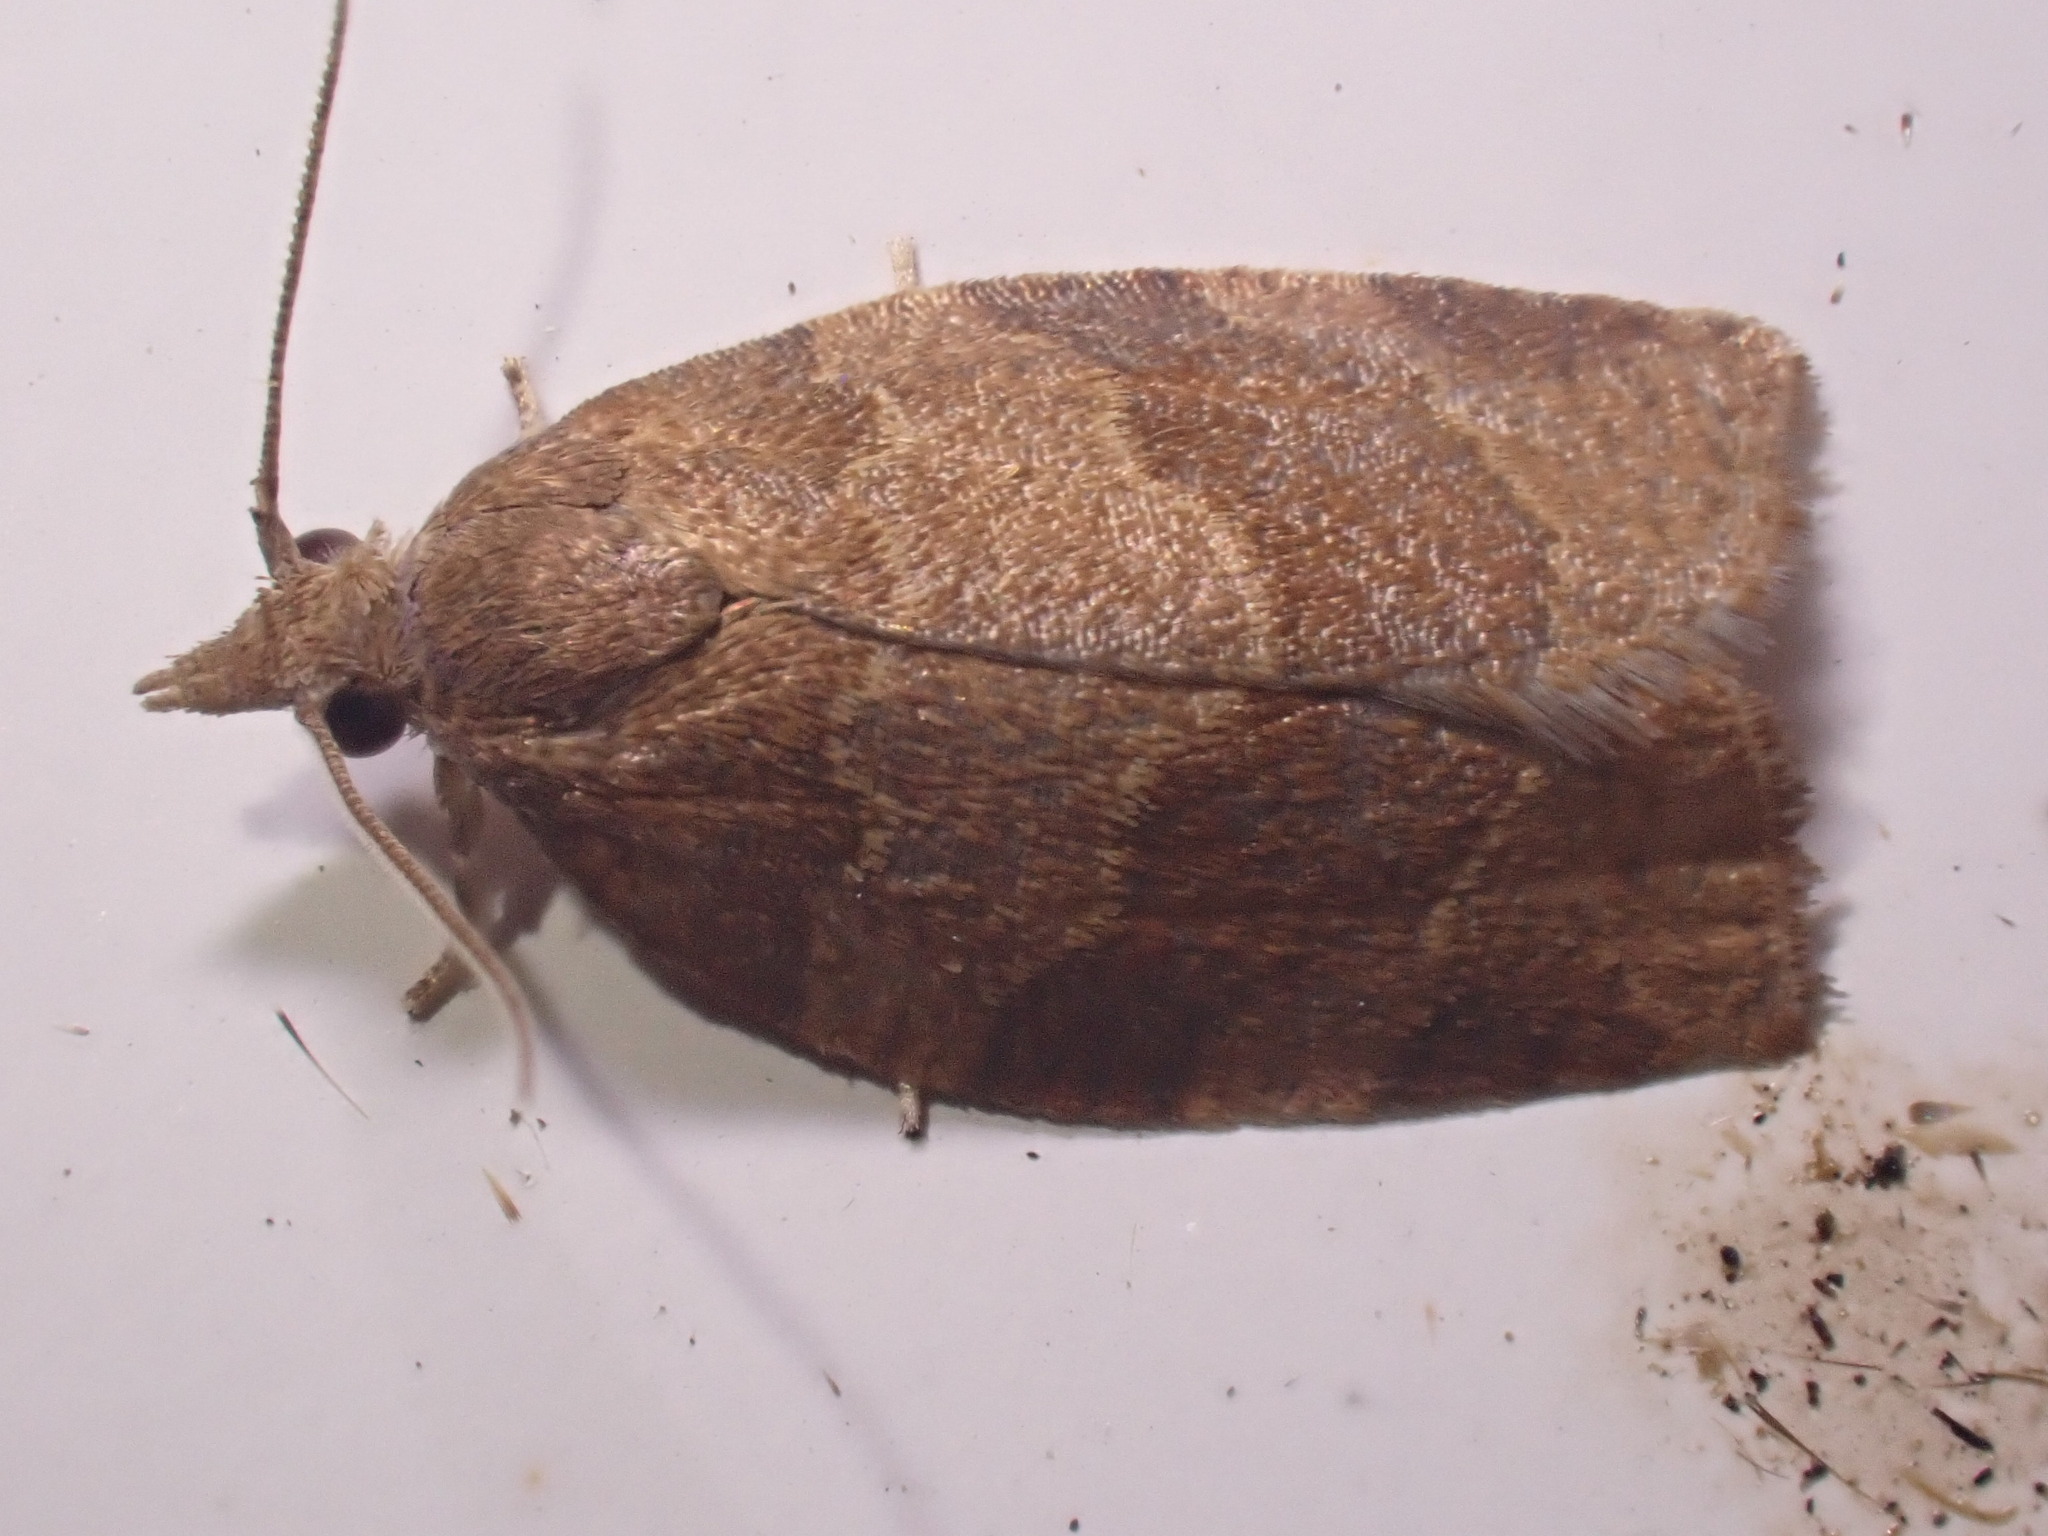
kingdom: Animalia
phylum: Arthropoda
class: Insecta
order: Lepidoptera
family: Tortricidae
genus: Pandemis
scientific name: Pandemis heparana
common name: Dark fruit-tree tortrix
